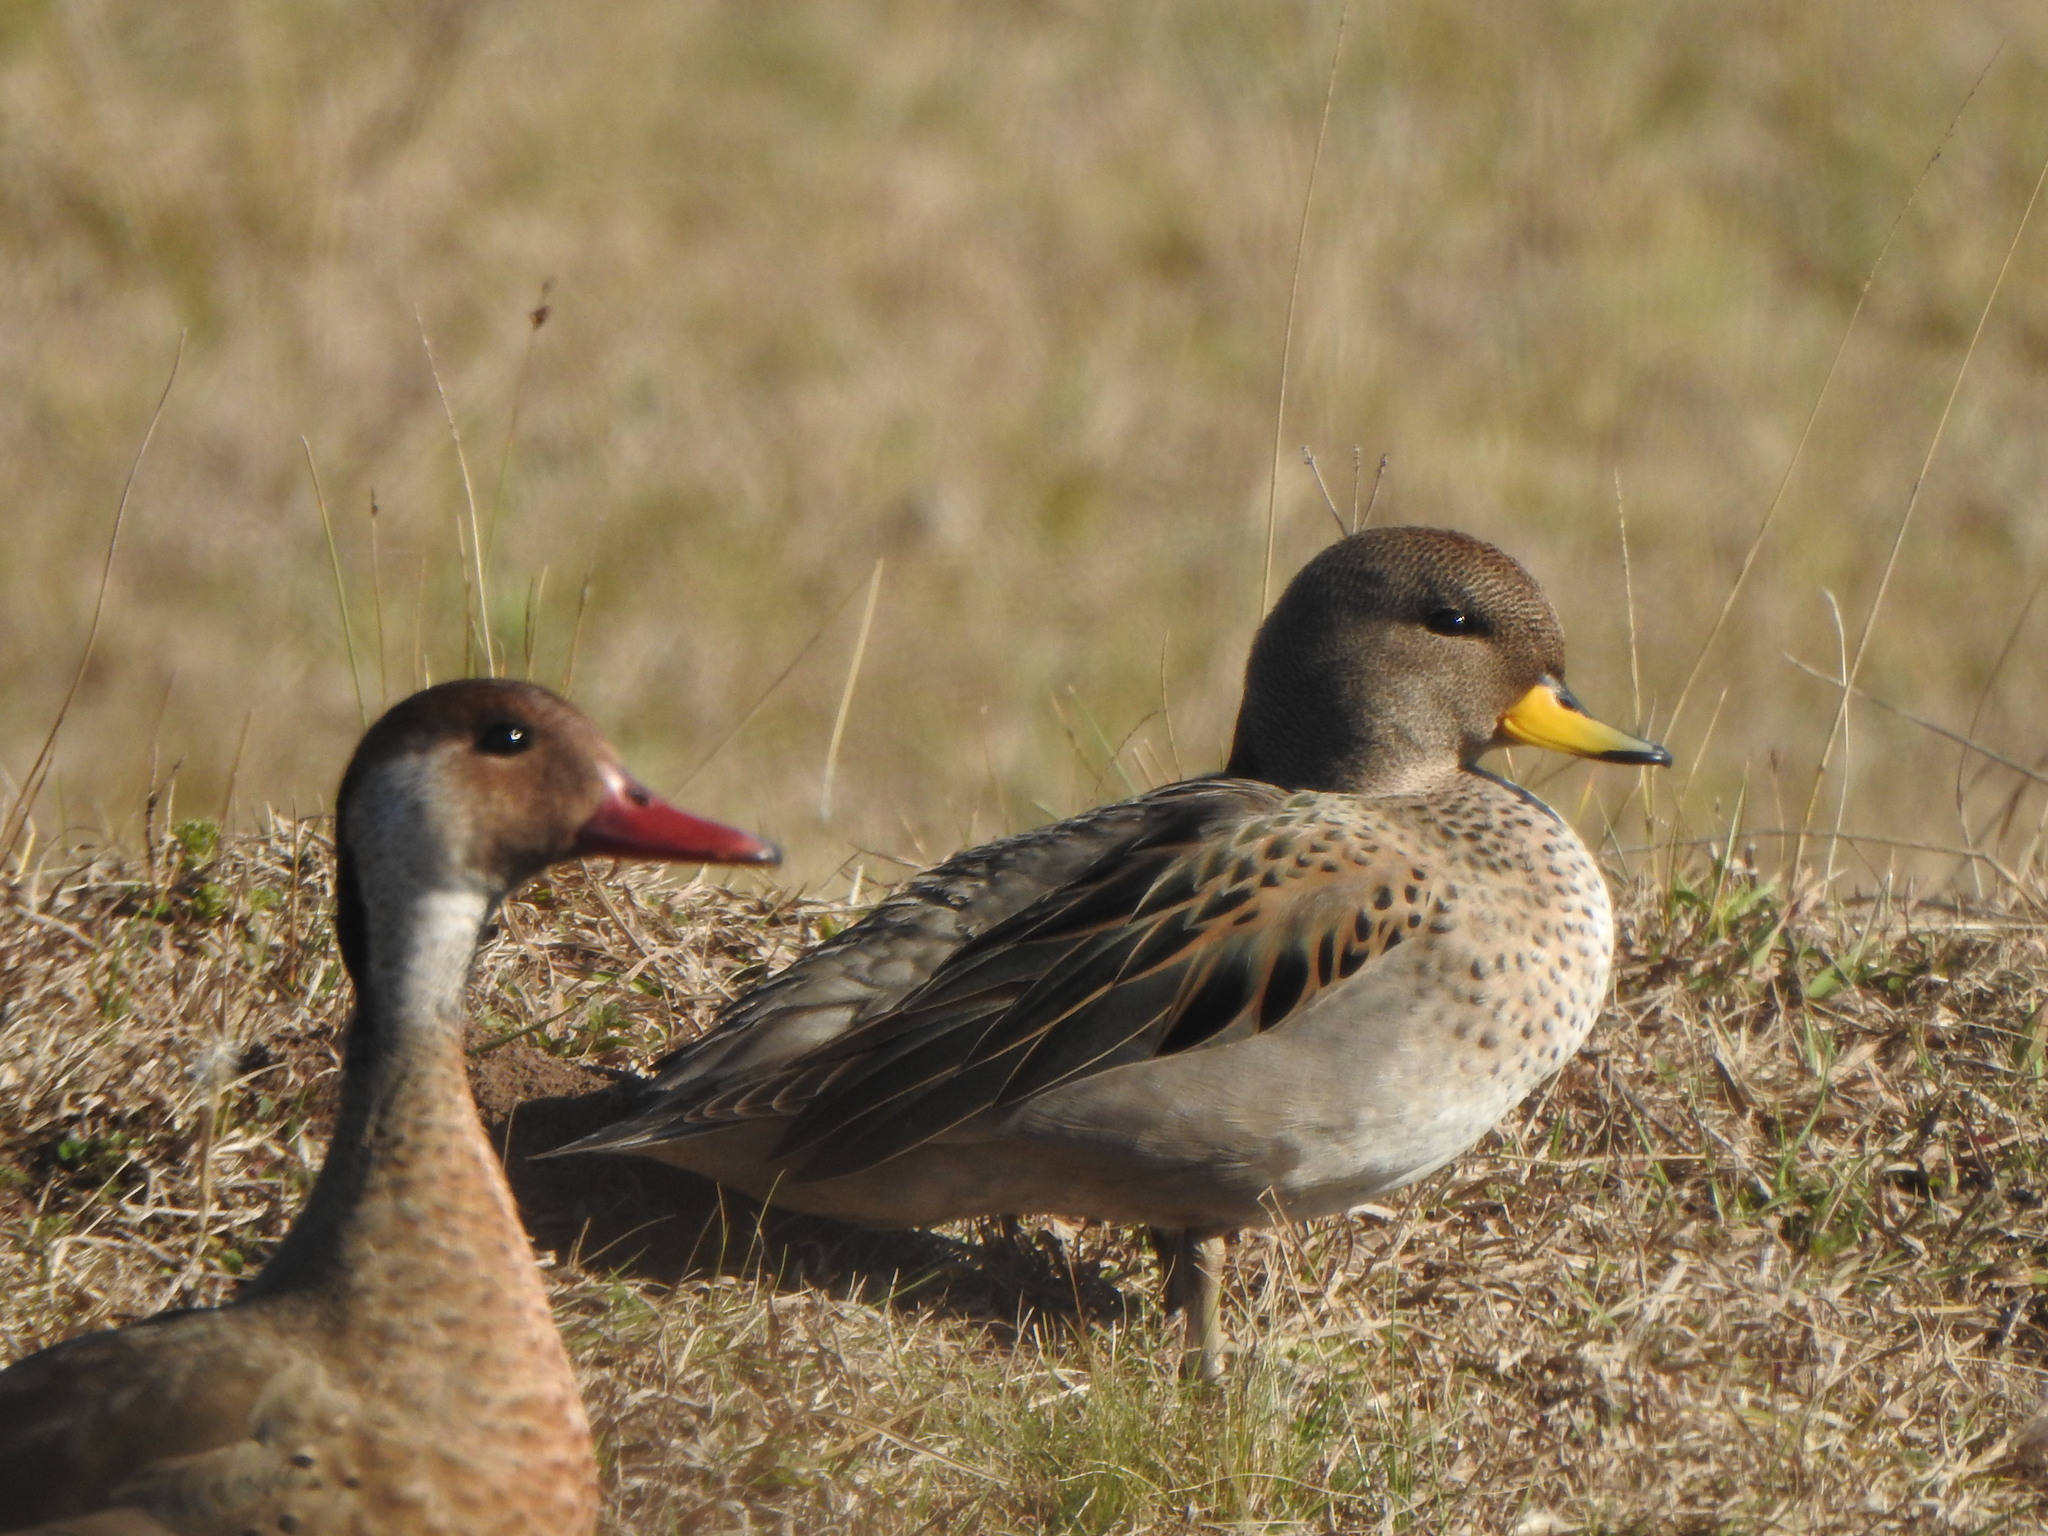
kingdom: Animalia
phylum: Chordata
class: Aves
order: Anseriformes
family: Anatidae
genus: Anas
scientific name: Anas flavirostris
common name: Yellow-billed teal
